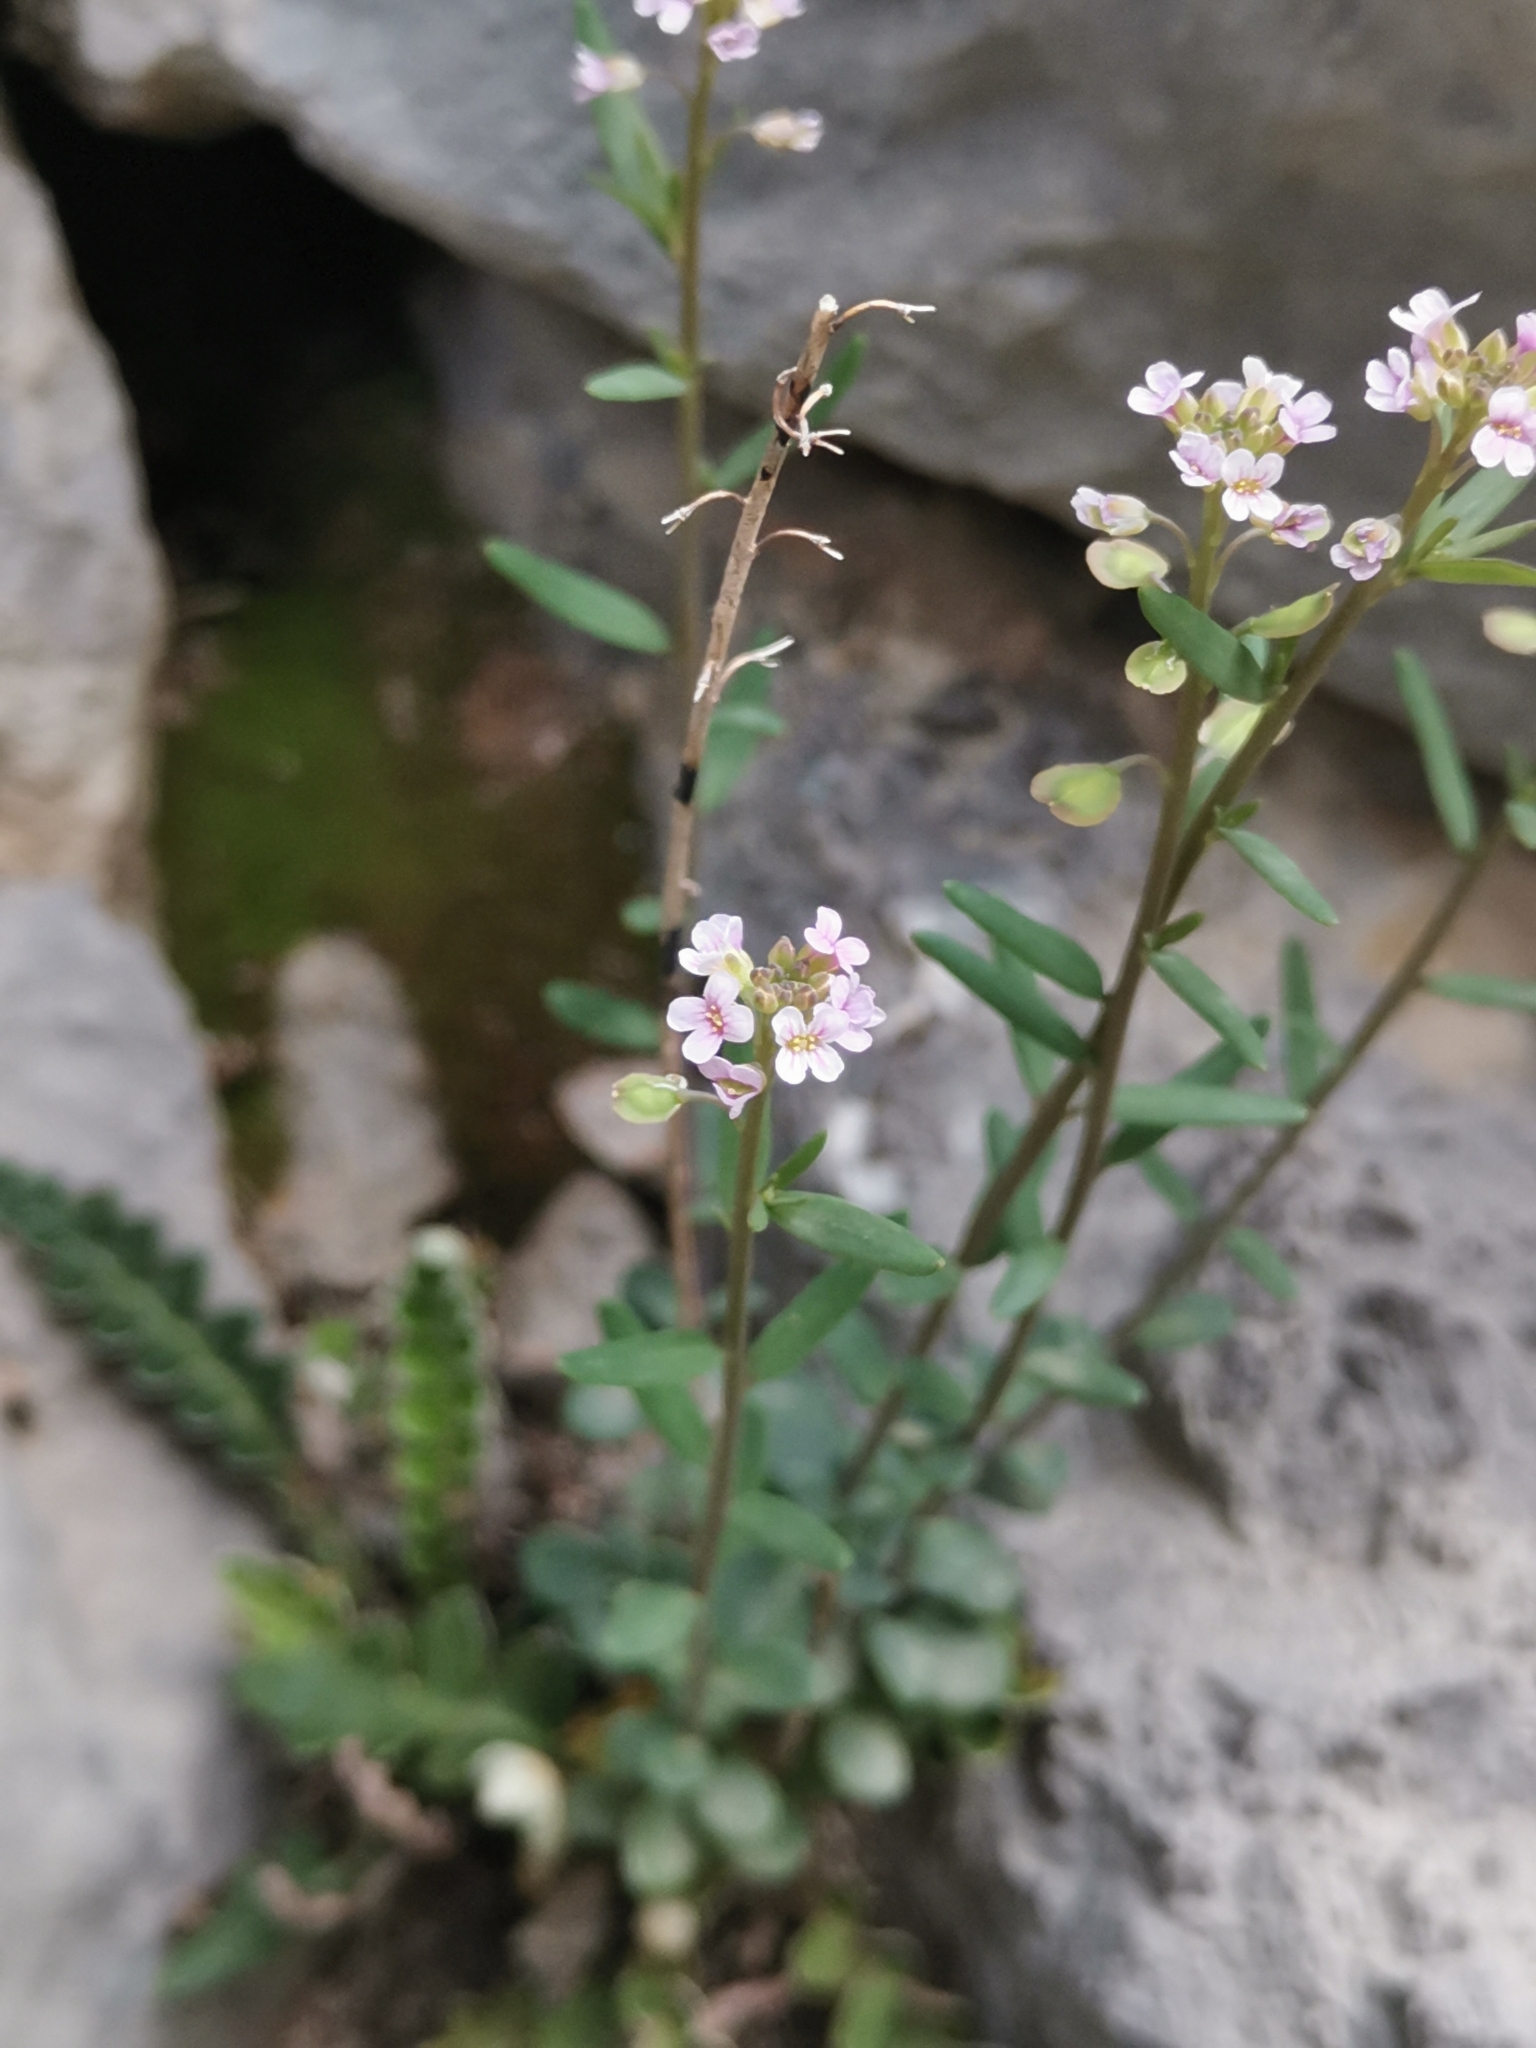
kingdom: Plantae
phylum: Tracheophyta
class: Magnoliopsida
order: Brassicales
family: Brassicaceae
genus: Aethionema
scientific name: Aethionema saxatile
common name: Burnt candytuft
